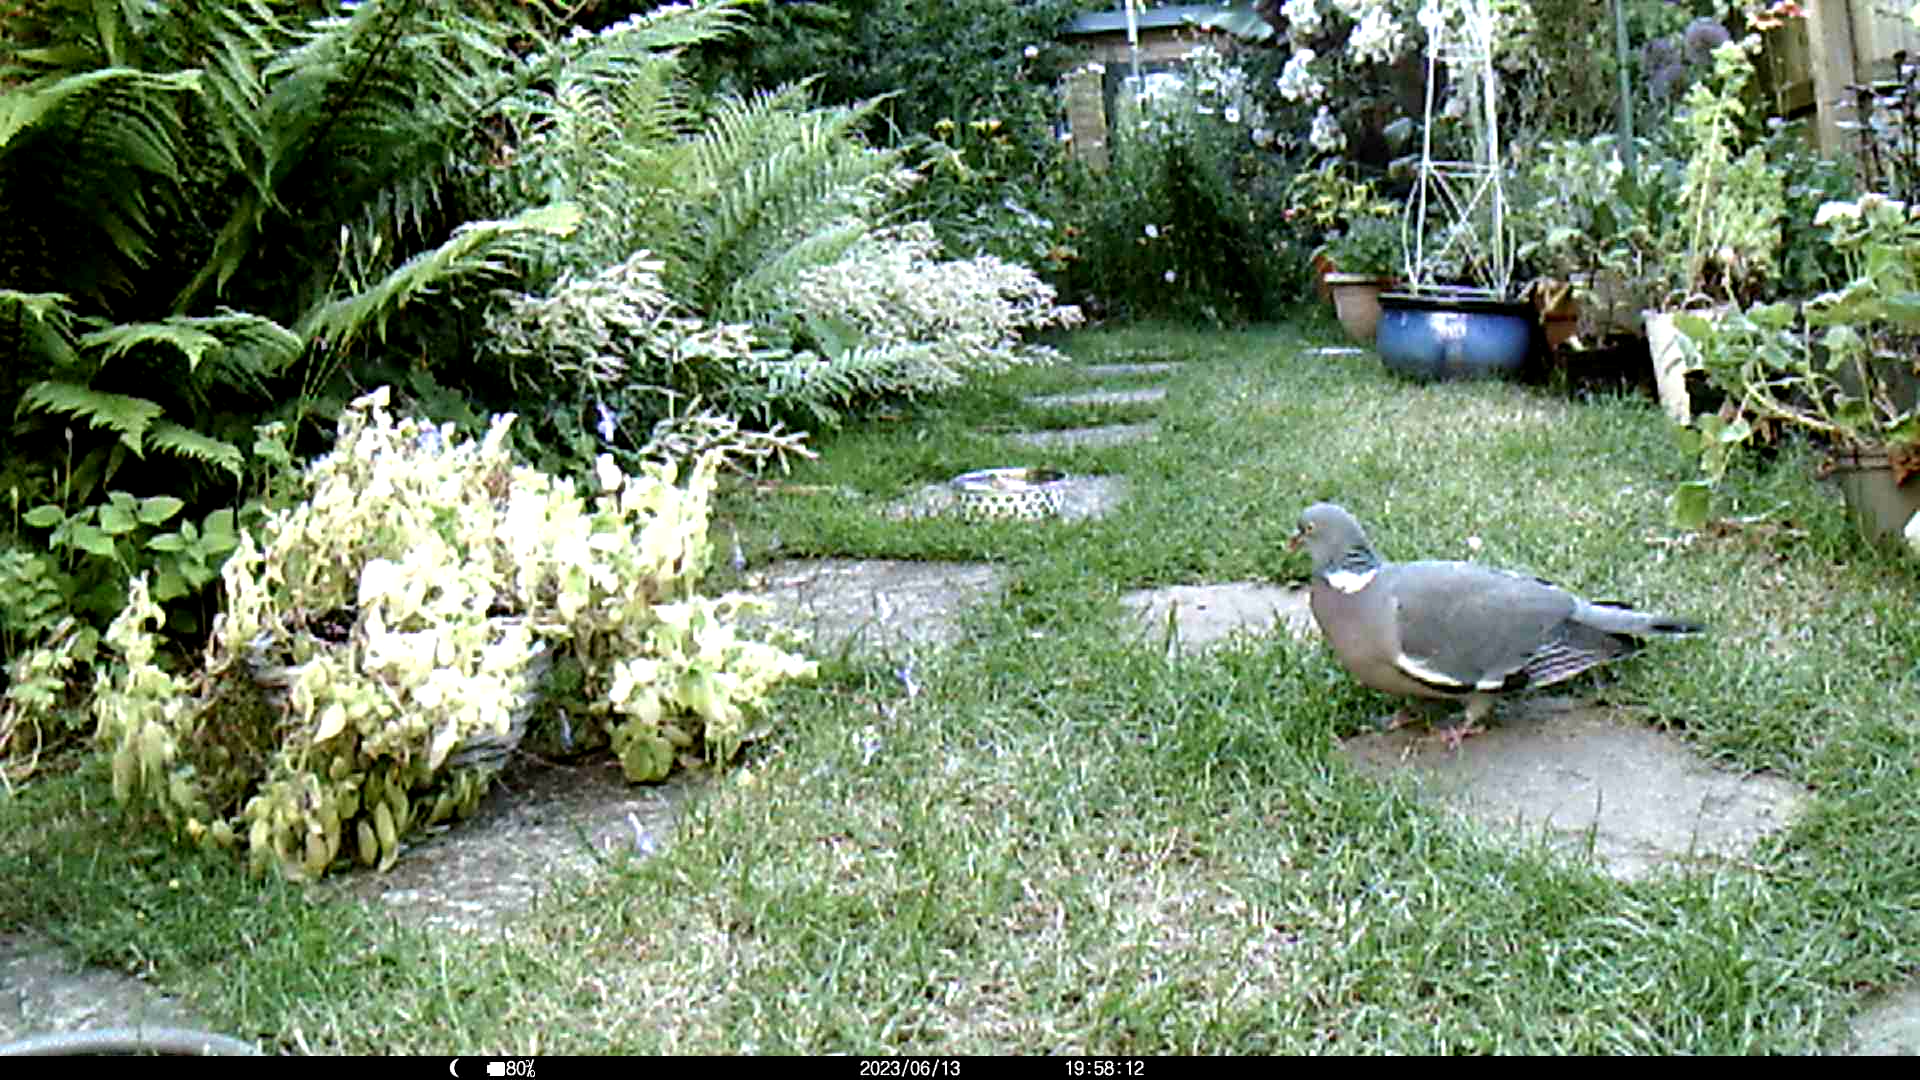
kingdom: Animalia
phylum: Chordata
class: Aves
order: Columbiformes
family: Columbidae
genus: Columba
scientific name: Columba palumbus
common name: Common wood pigeon
